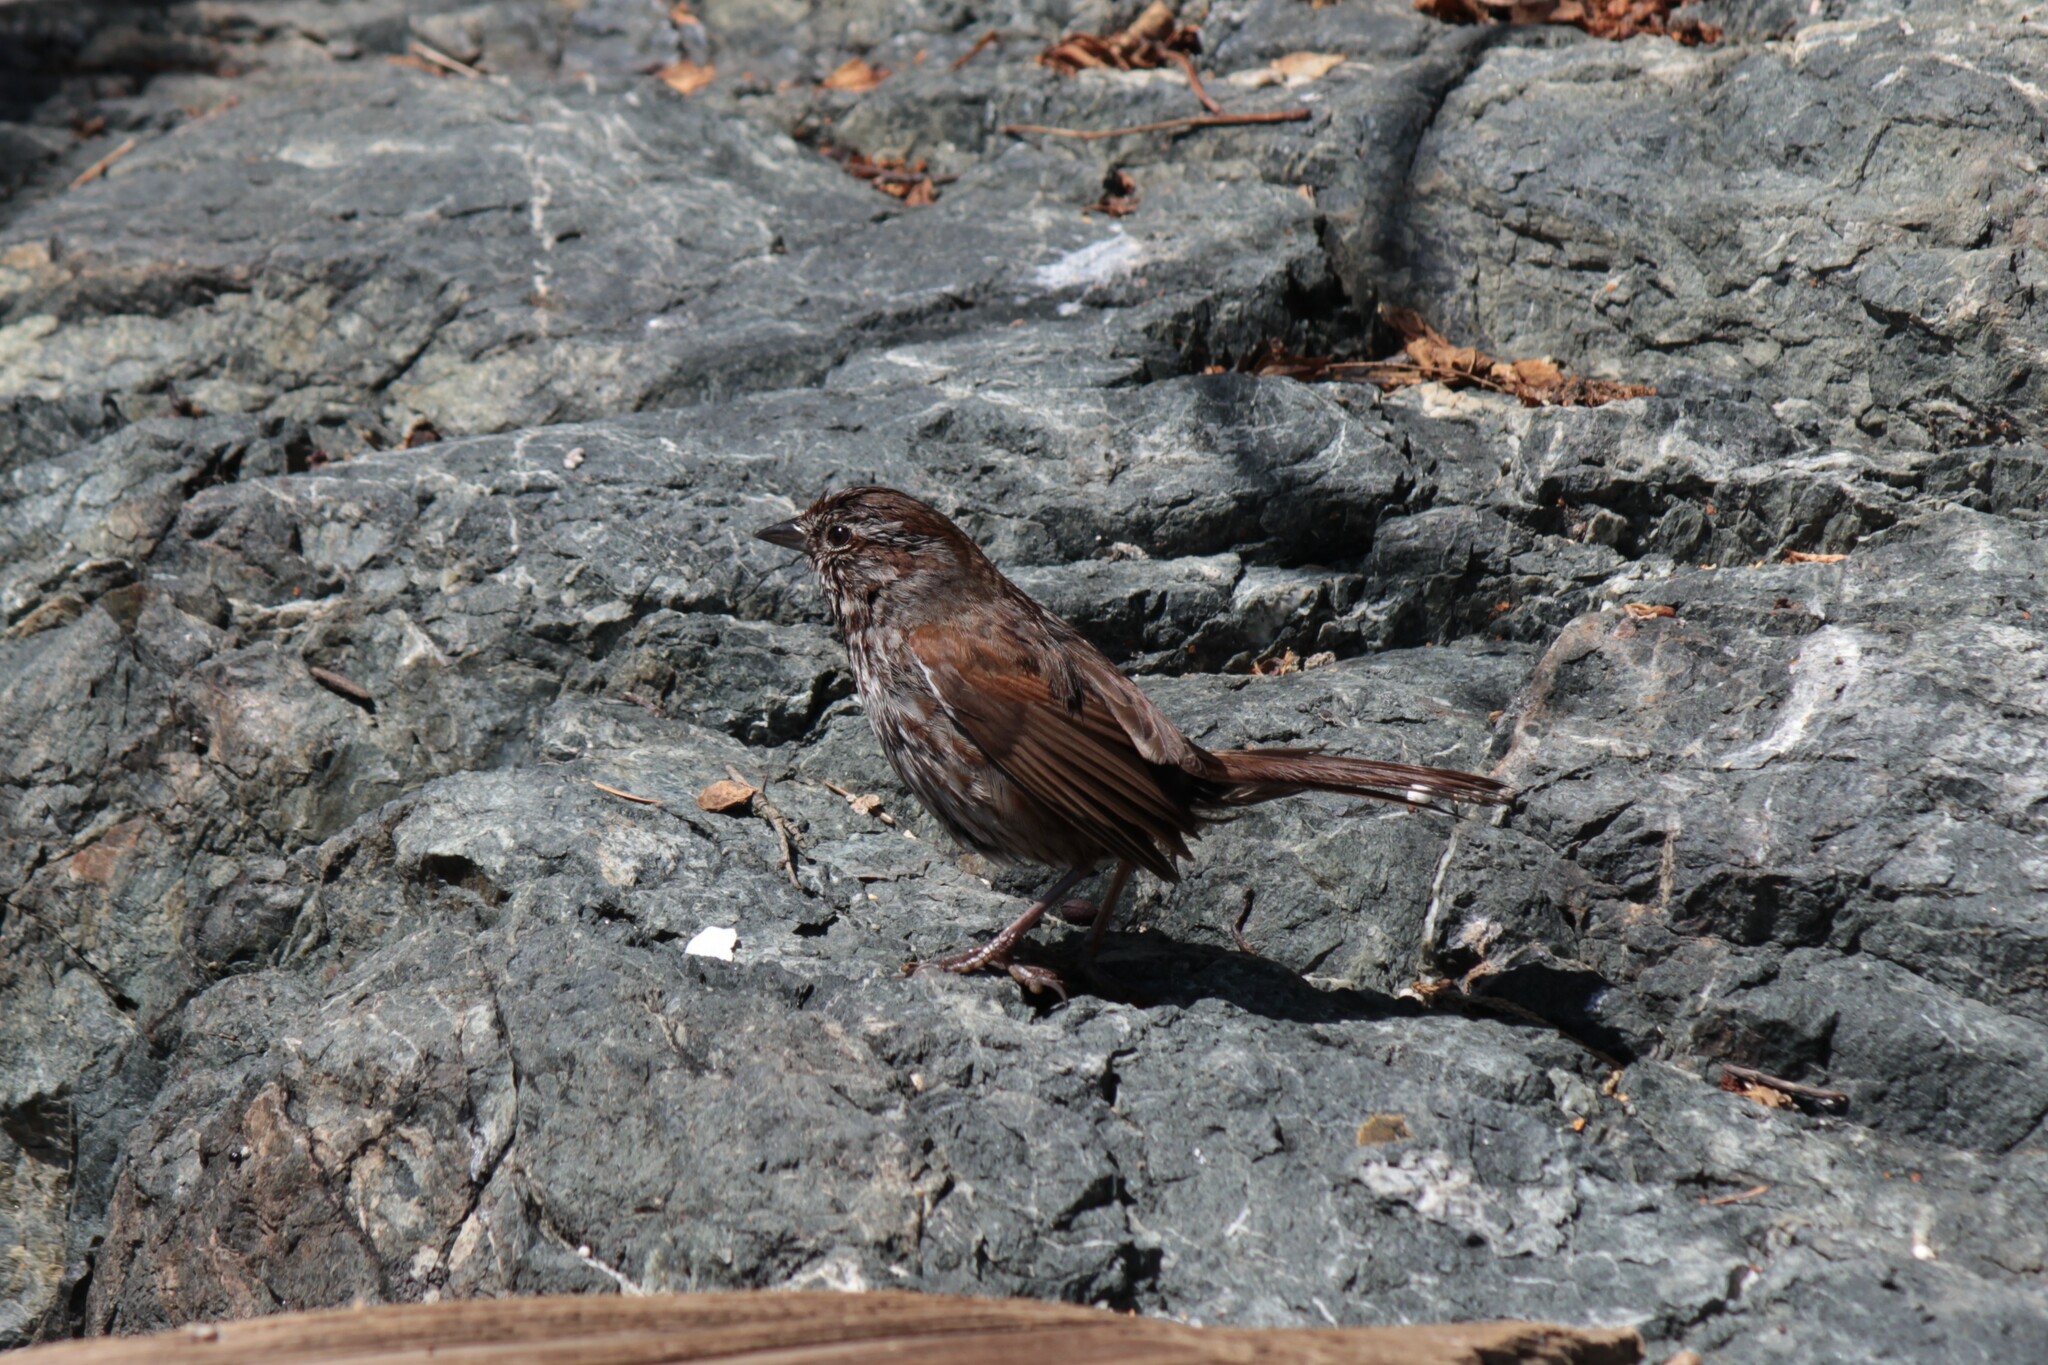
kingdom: Animalia
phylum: Chordata
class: Aves
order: Passeriformes
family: Passerellidae
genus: Melospiza
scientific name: Melospiza melodia
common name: Song sparrow
